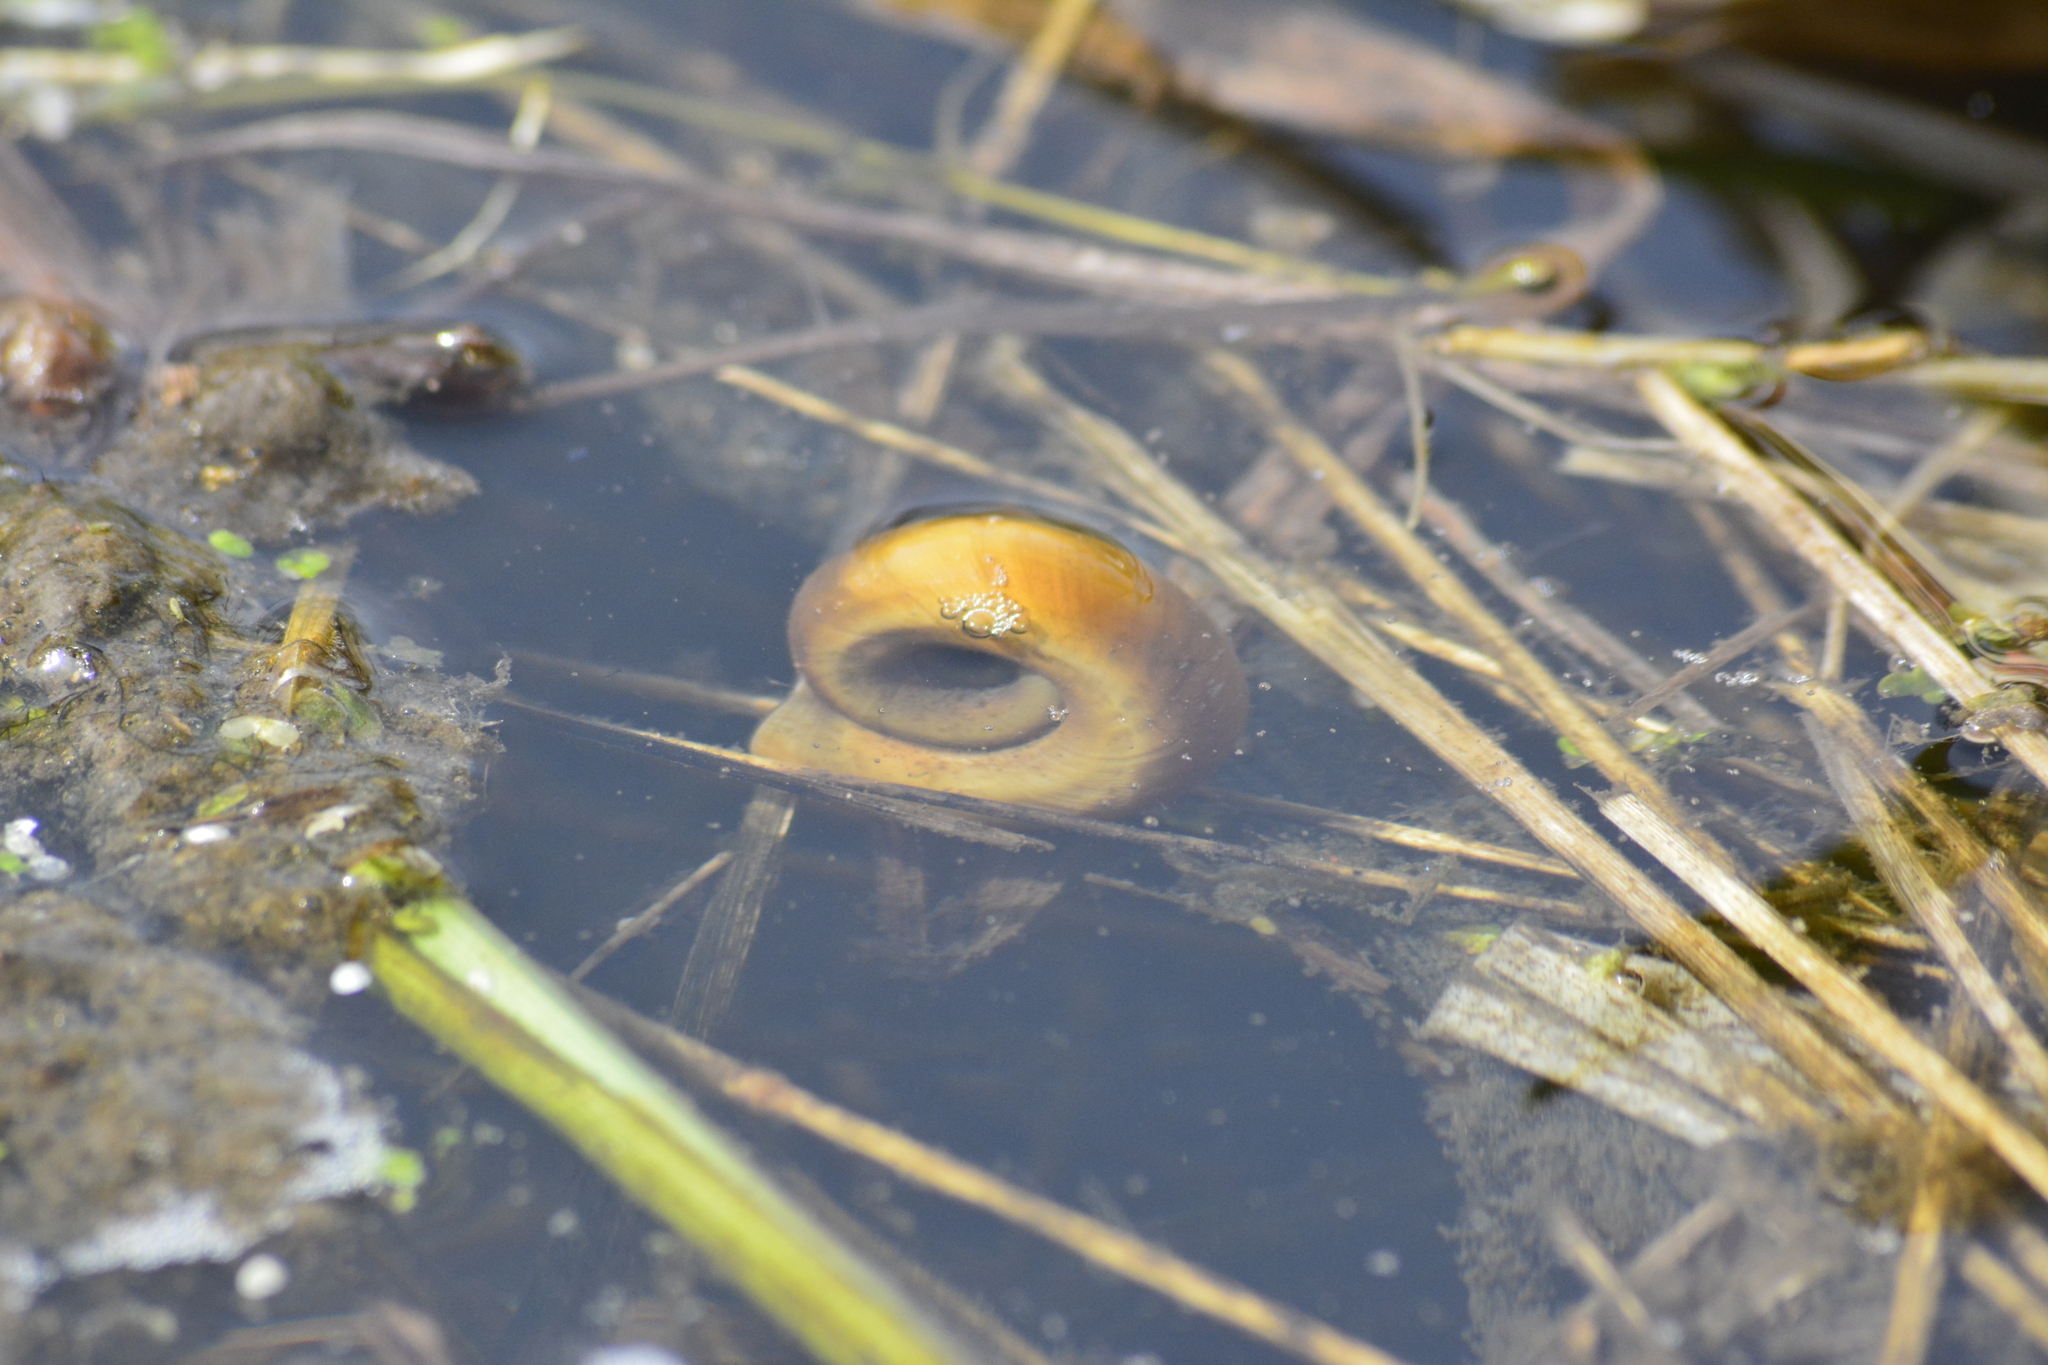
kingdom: Animalia
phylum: Mollusca
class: Gastropoda
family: Planorbidae
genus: Planorbarius
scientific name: Planorbarius corneus
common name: Great ramshorn
